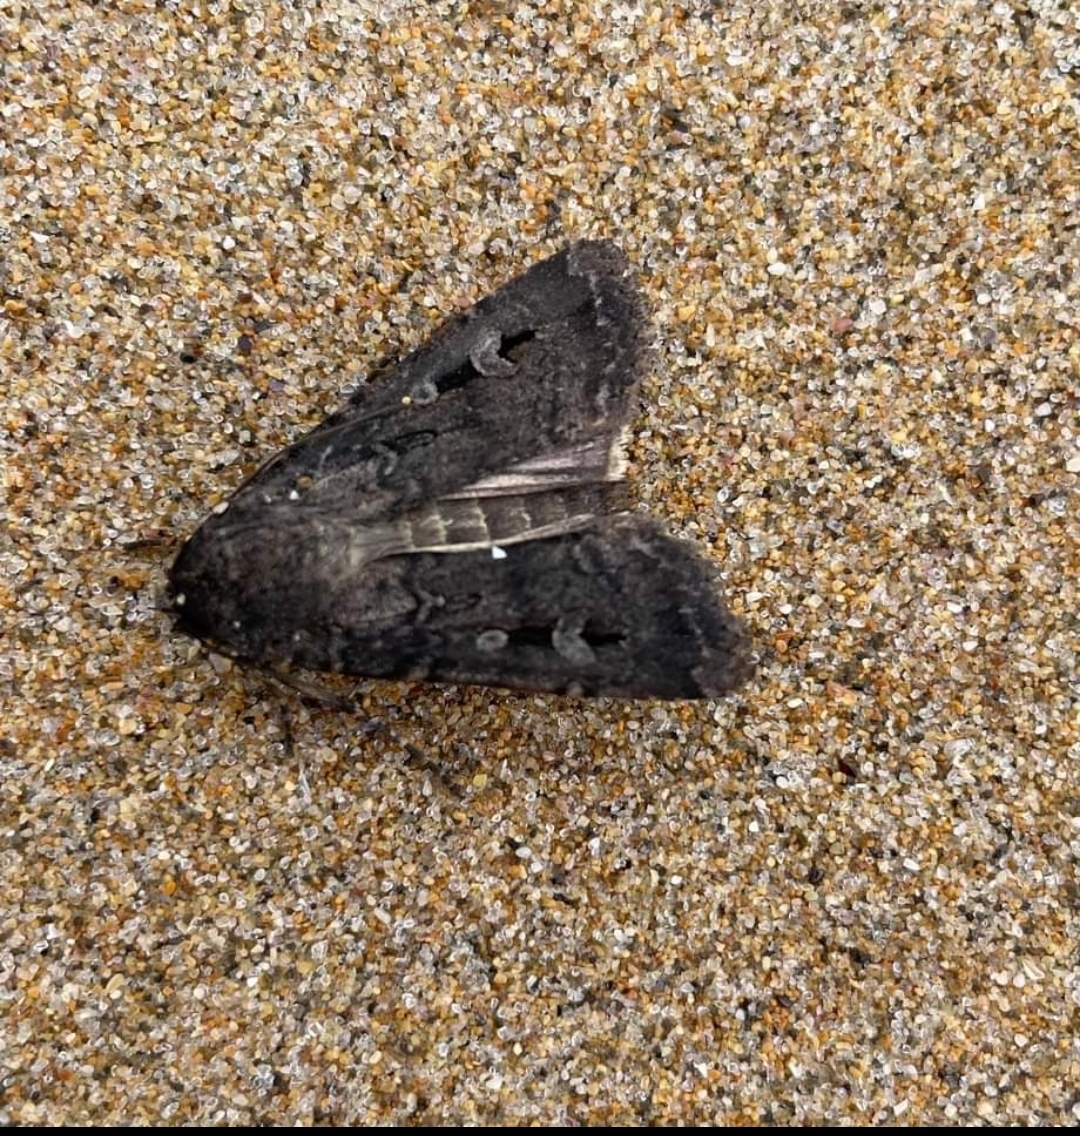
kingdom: Animalia
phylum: Arthropoda
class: Insecta
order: Lepidoptera
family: Noctuidae
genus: Agrotis
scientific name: Agrotis infusa
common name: Bogong moth
